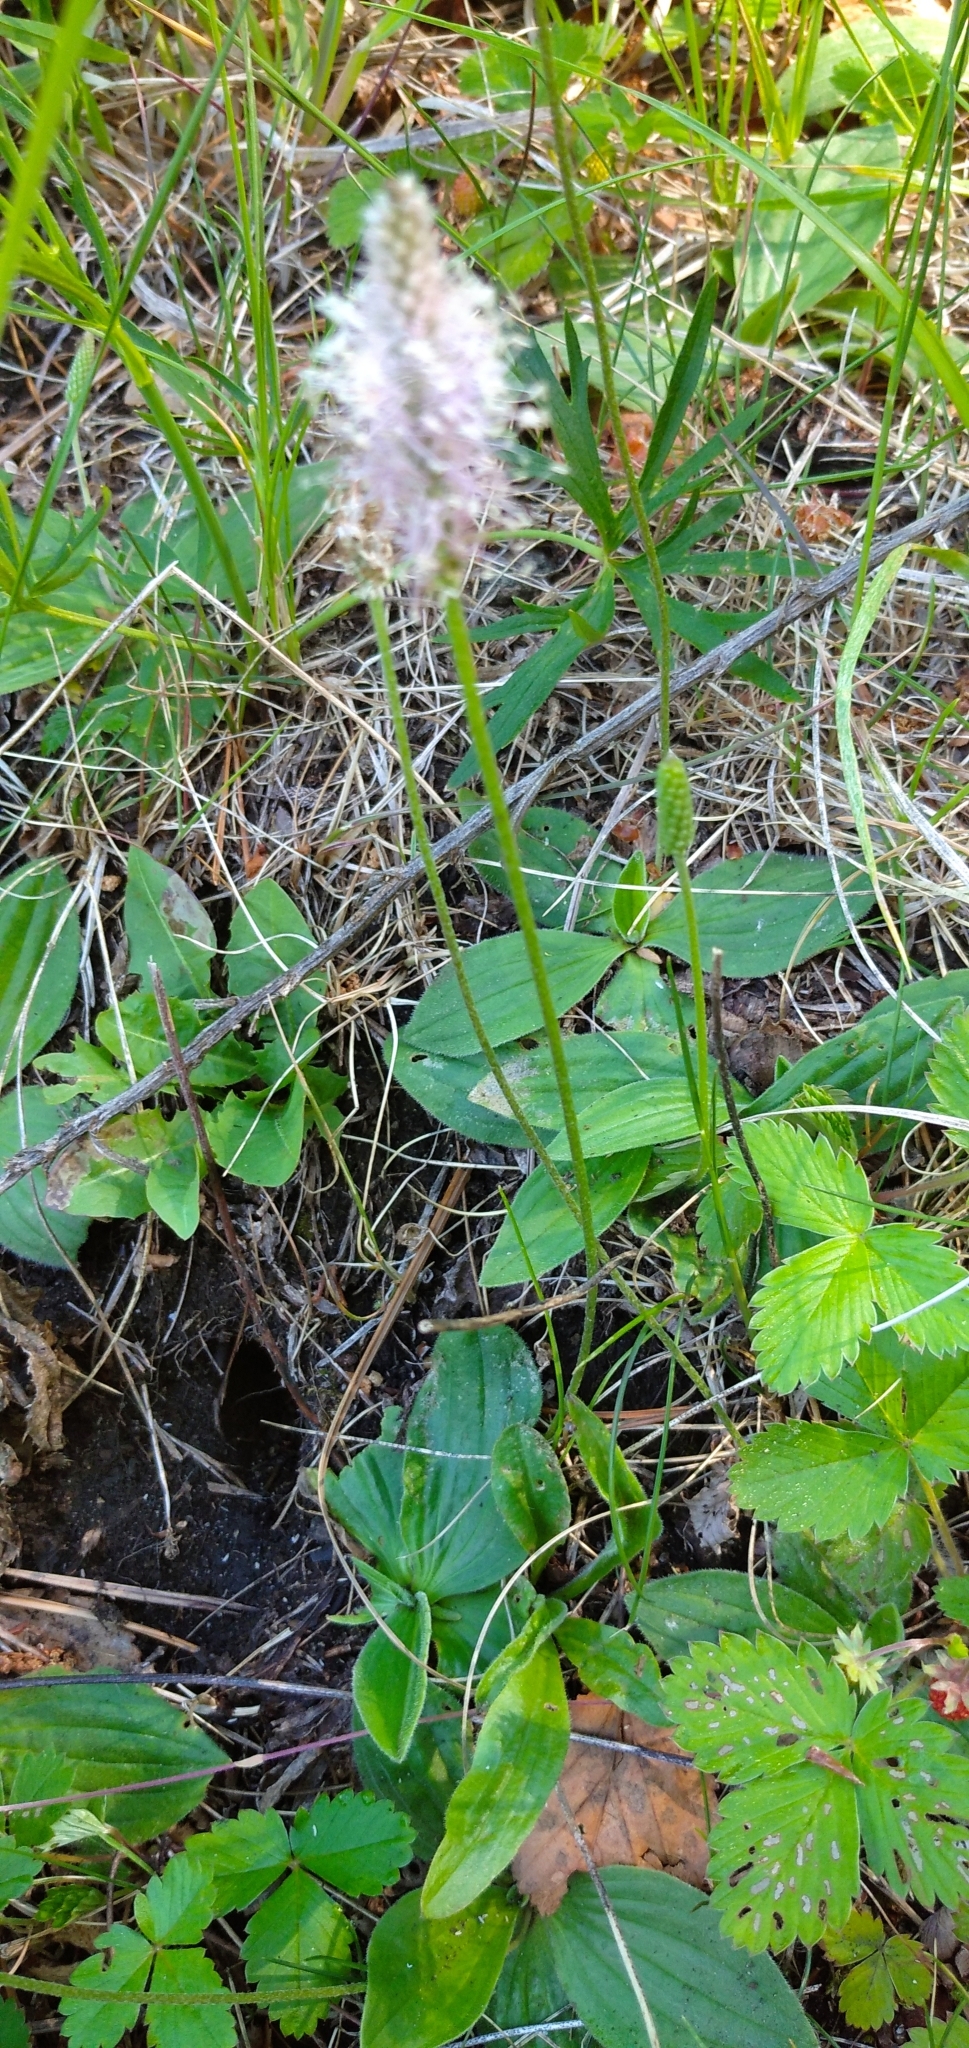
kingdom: Plantae
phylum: Tracheophyta
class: Magnoliopsida
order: Lamiales
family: Plantaginaceae
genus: Plantago
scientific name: Plantago media
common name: Hoary plantain
